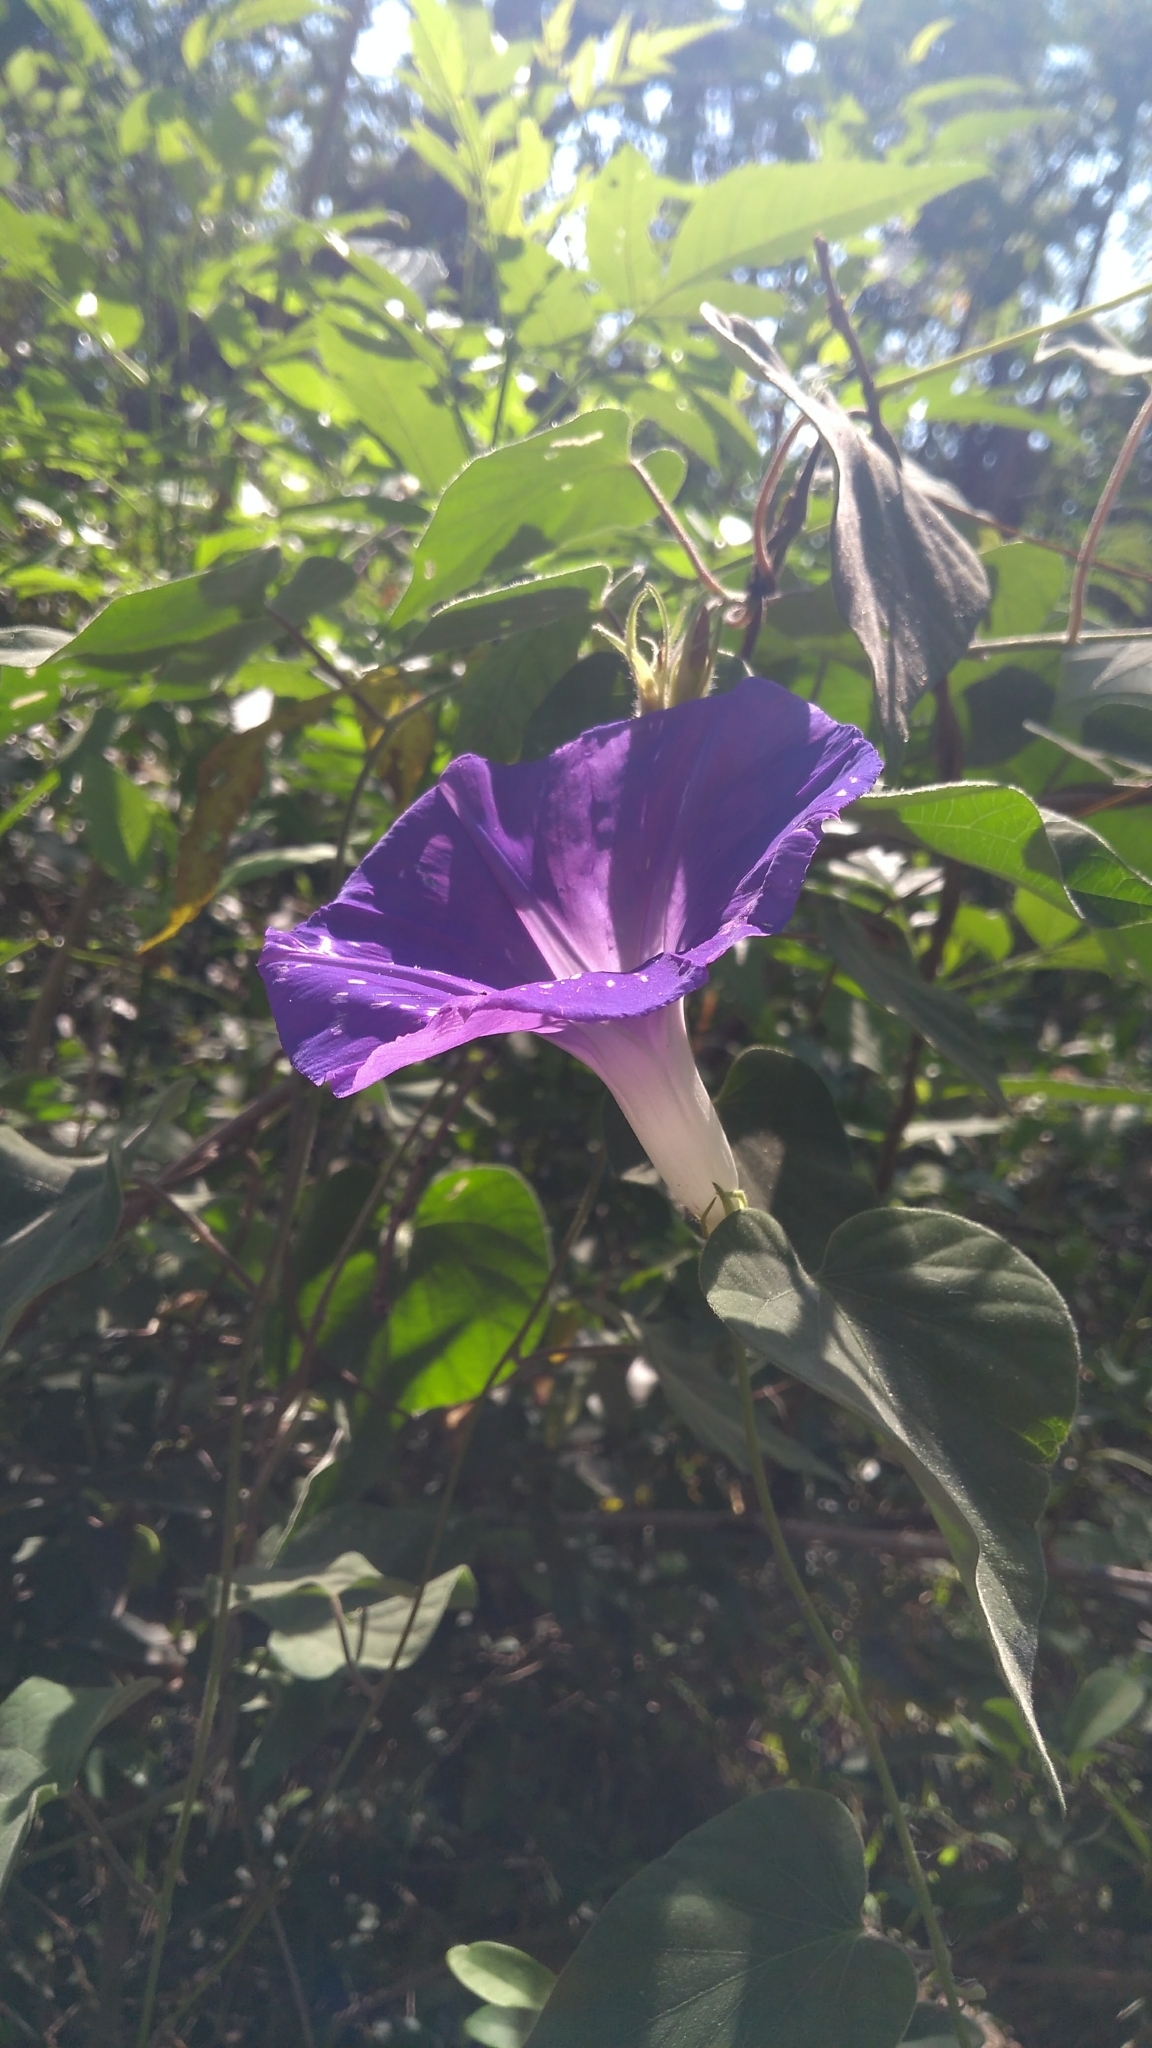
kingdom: Plantae
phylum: Tracheophyta
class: Magnoliopsida
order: Solanales
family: Convolvulaceae
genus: Ipomoea
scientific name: Ipomoea indica
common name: Blue dawnflower
